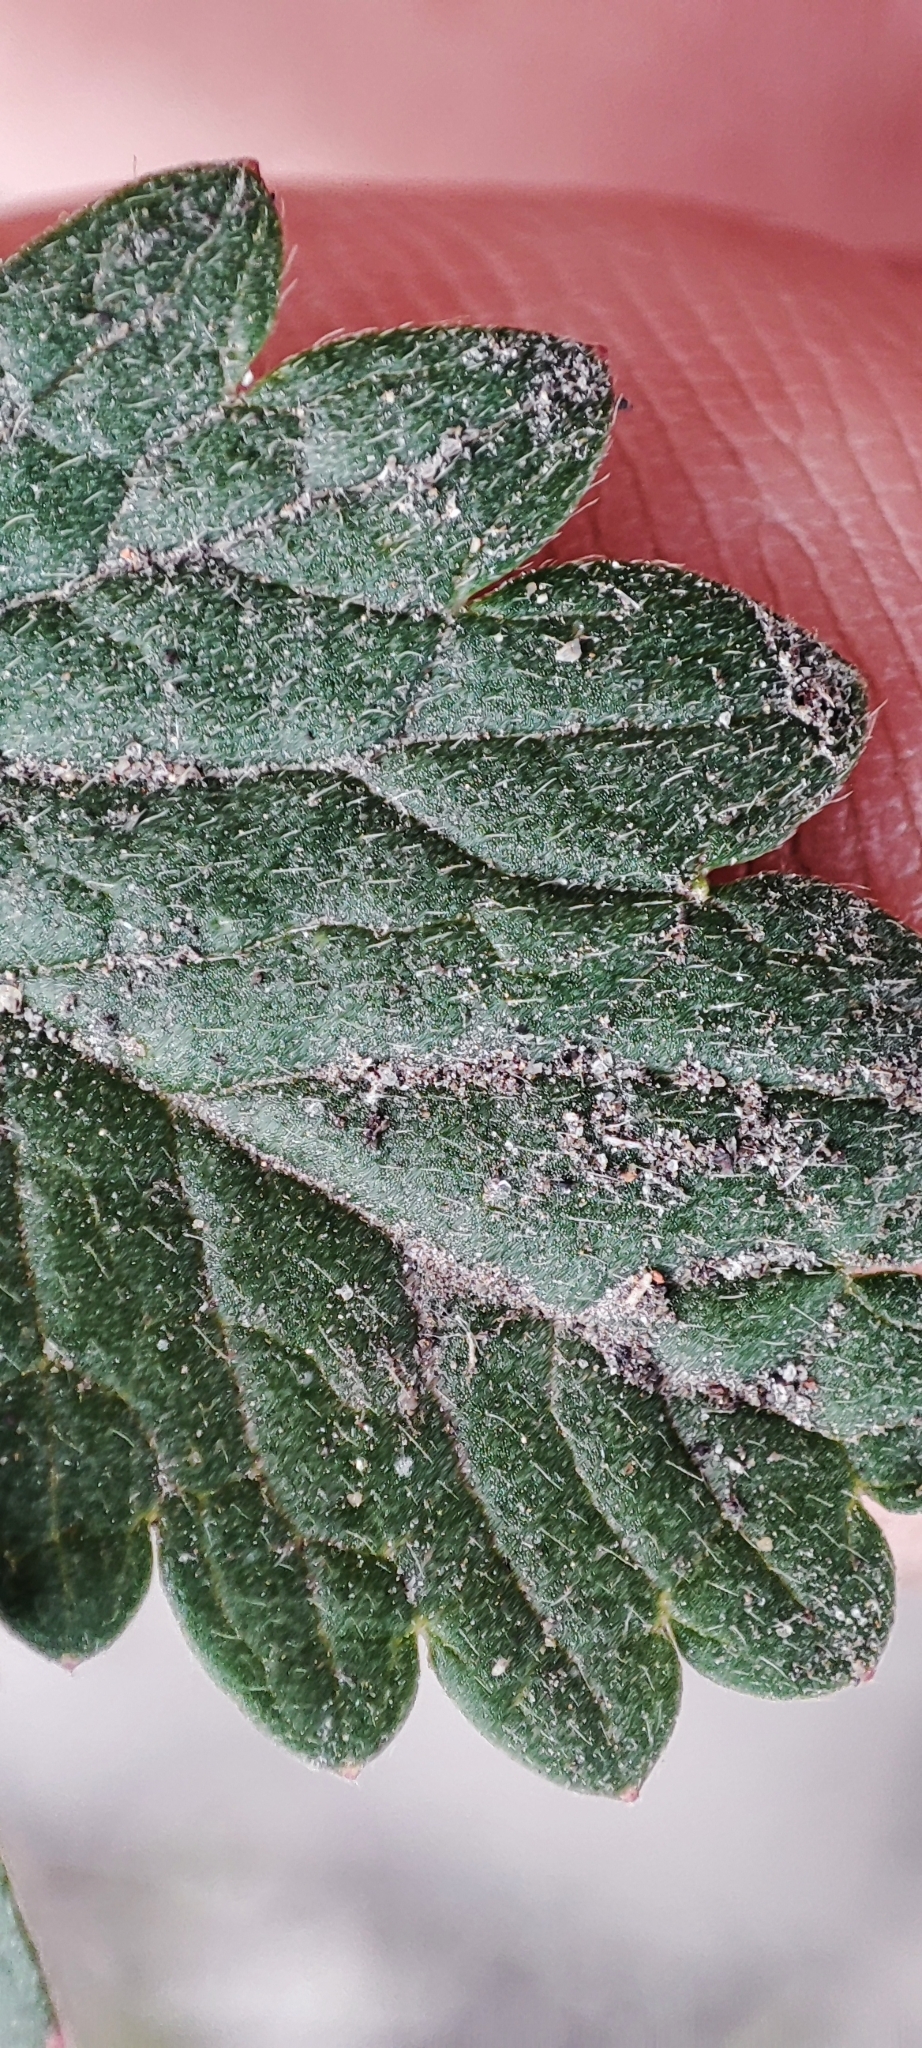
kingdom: Plantae
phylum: Tracheophyta
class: Magnoliopsida
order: Rosales
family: Rosaceae
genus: Potentilla
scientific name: Potentilla intermedia
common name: Downy cinquefoil
